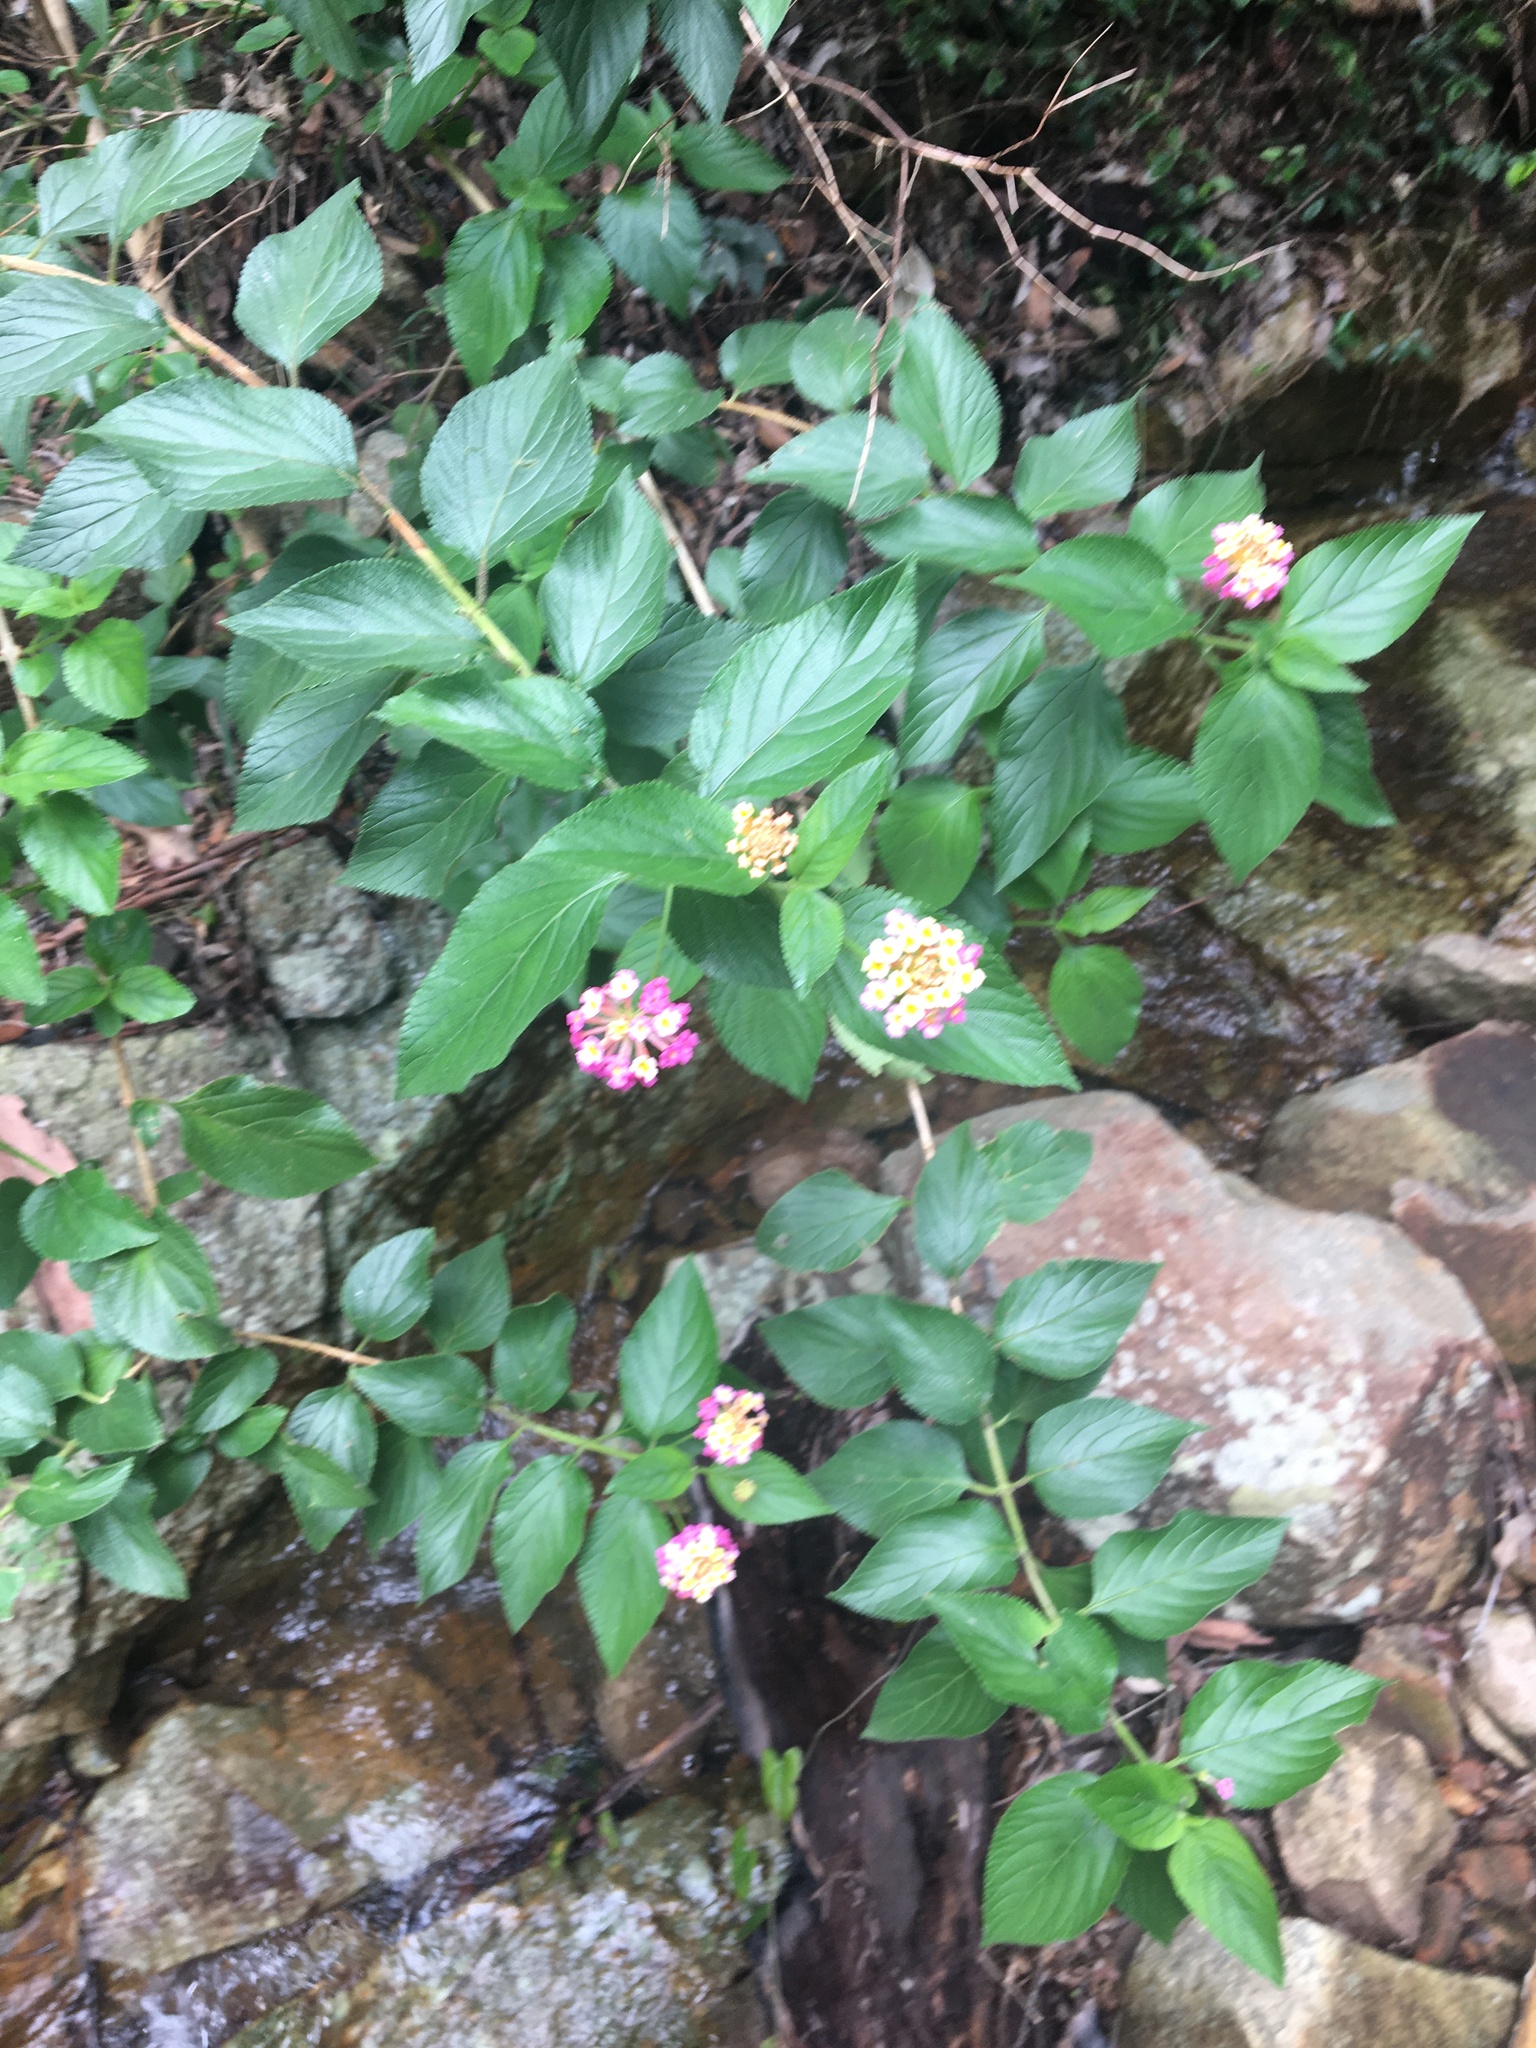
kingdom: Plantae
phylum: Tracheophyta
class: Magnoliopsida
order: Lamiales
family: Verbenaceae
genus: Lantana
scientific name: Lantana camara
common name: Lantana
